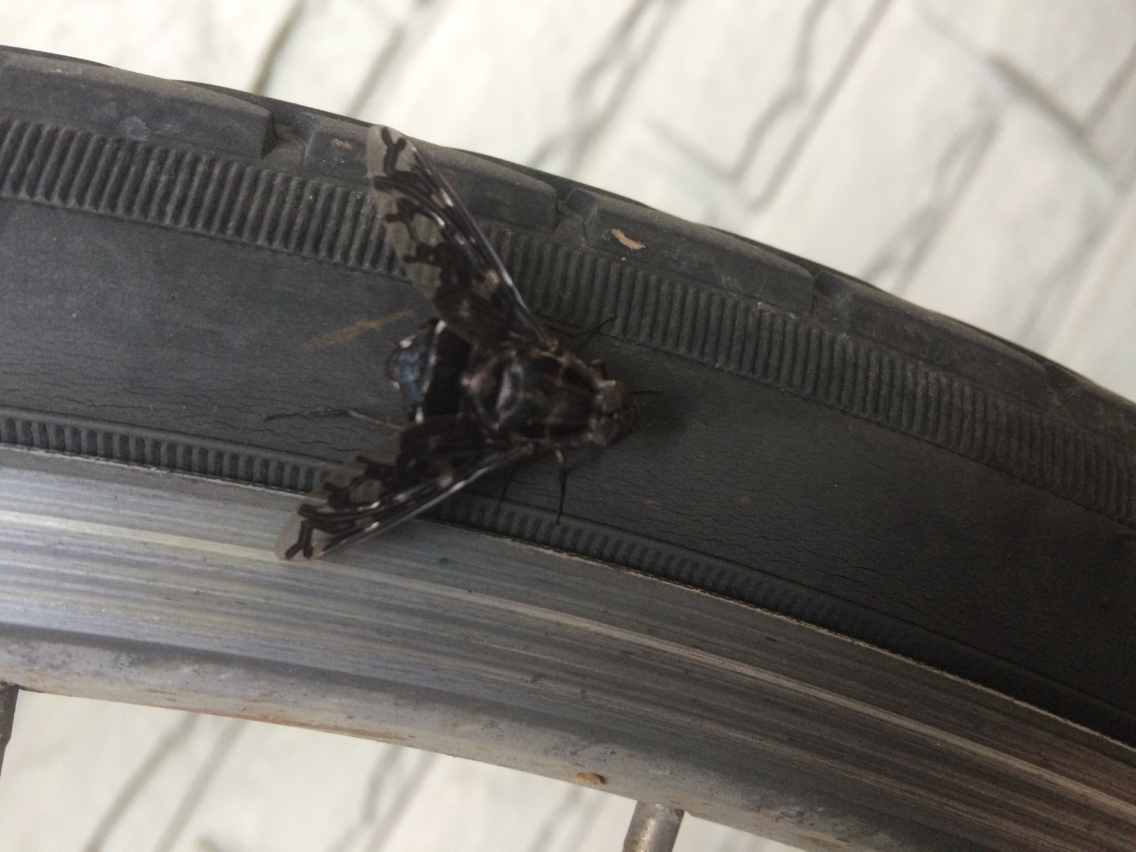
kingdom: Animalia
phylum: Arthropoda
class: Insecta
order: Diptera
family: Bombyliidae
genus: Xenox
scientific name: Xenox tigrinus
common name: Tiger bee fly
